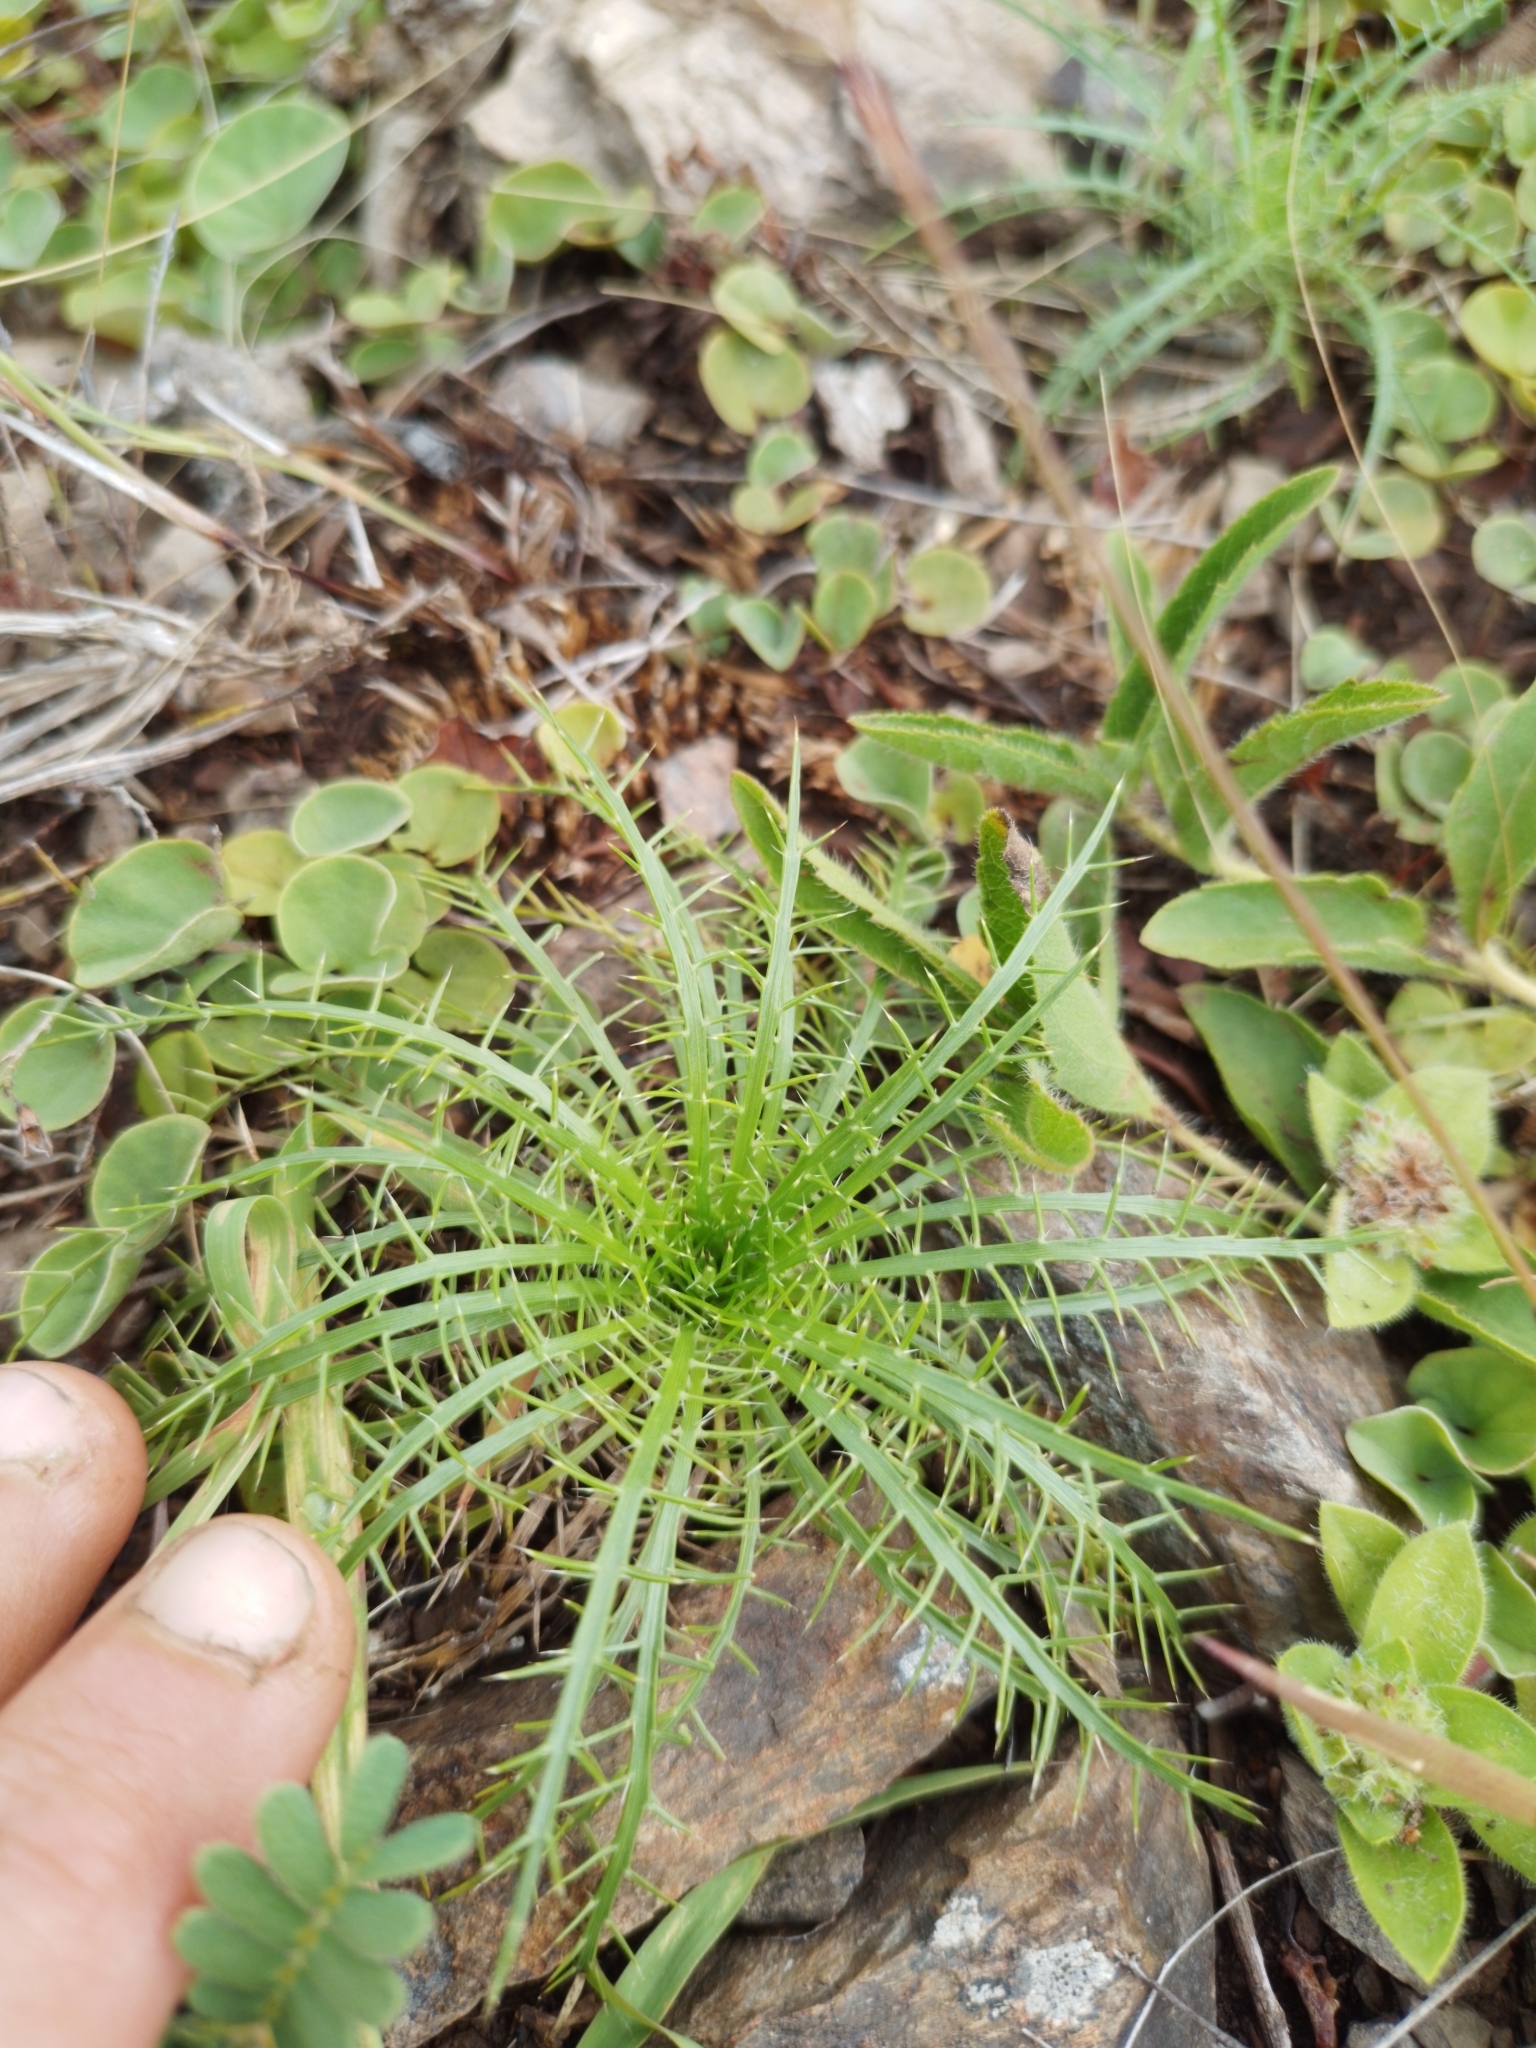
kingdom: Plantae
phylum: Tracheophyta
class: Magnoliopsida
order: Apiales
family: Apiaceae
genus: Eryngium
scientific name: Eryngium pristis
